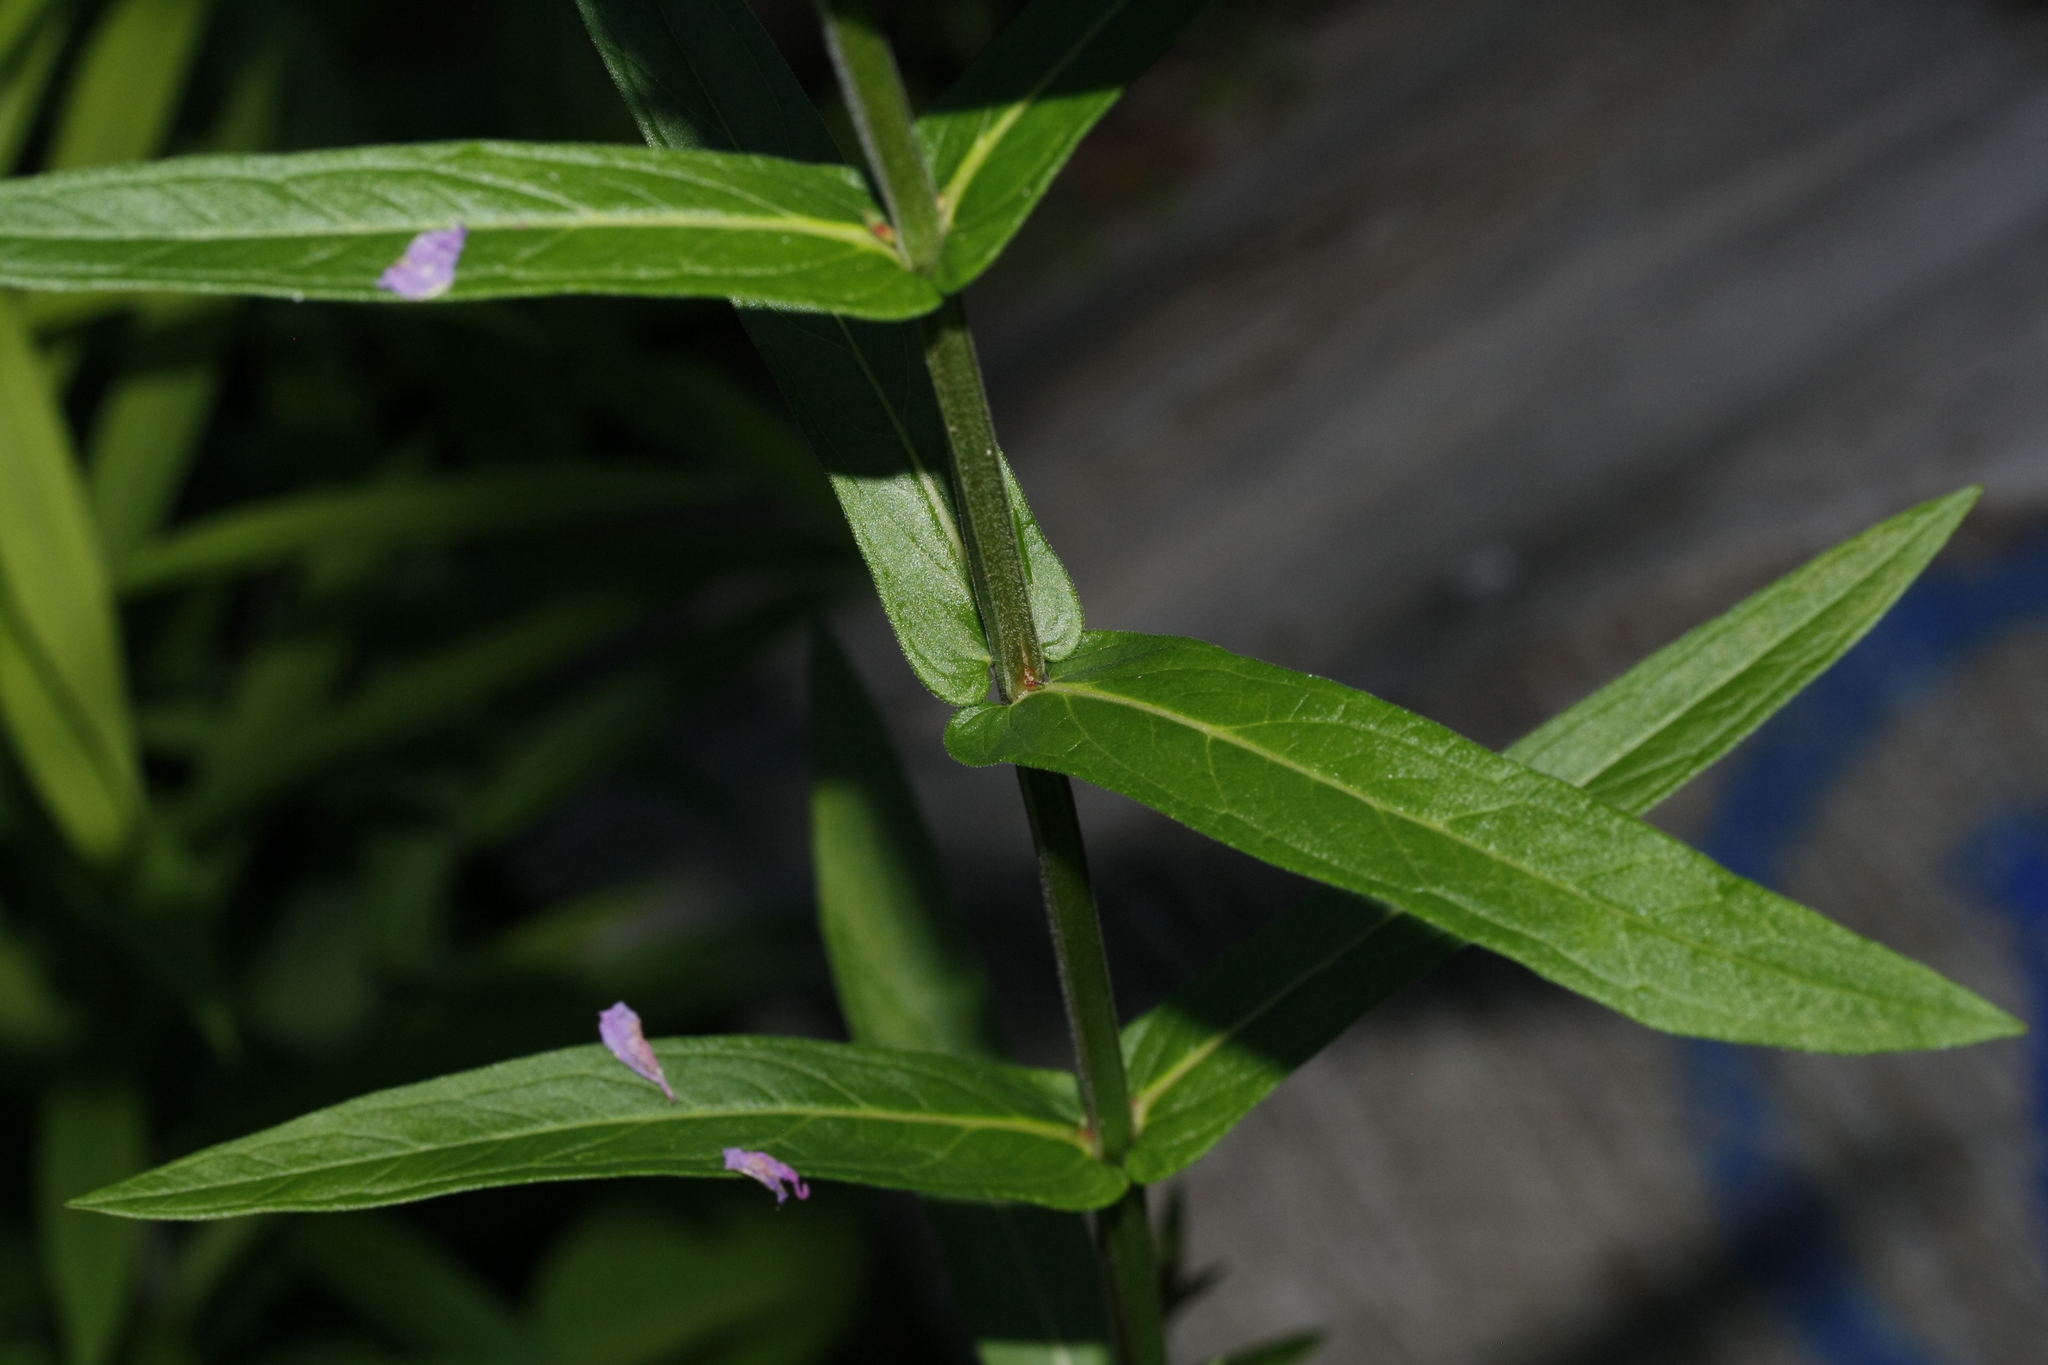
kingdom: Plantae
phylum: Tracheophyta
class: Magnoliopsida
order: Myrtales
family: Lythraceae
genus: Lythrum
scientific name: Lythrum salicaria
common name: Purple loosestrife
